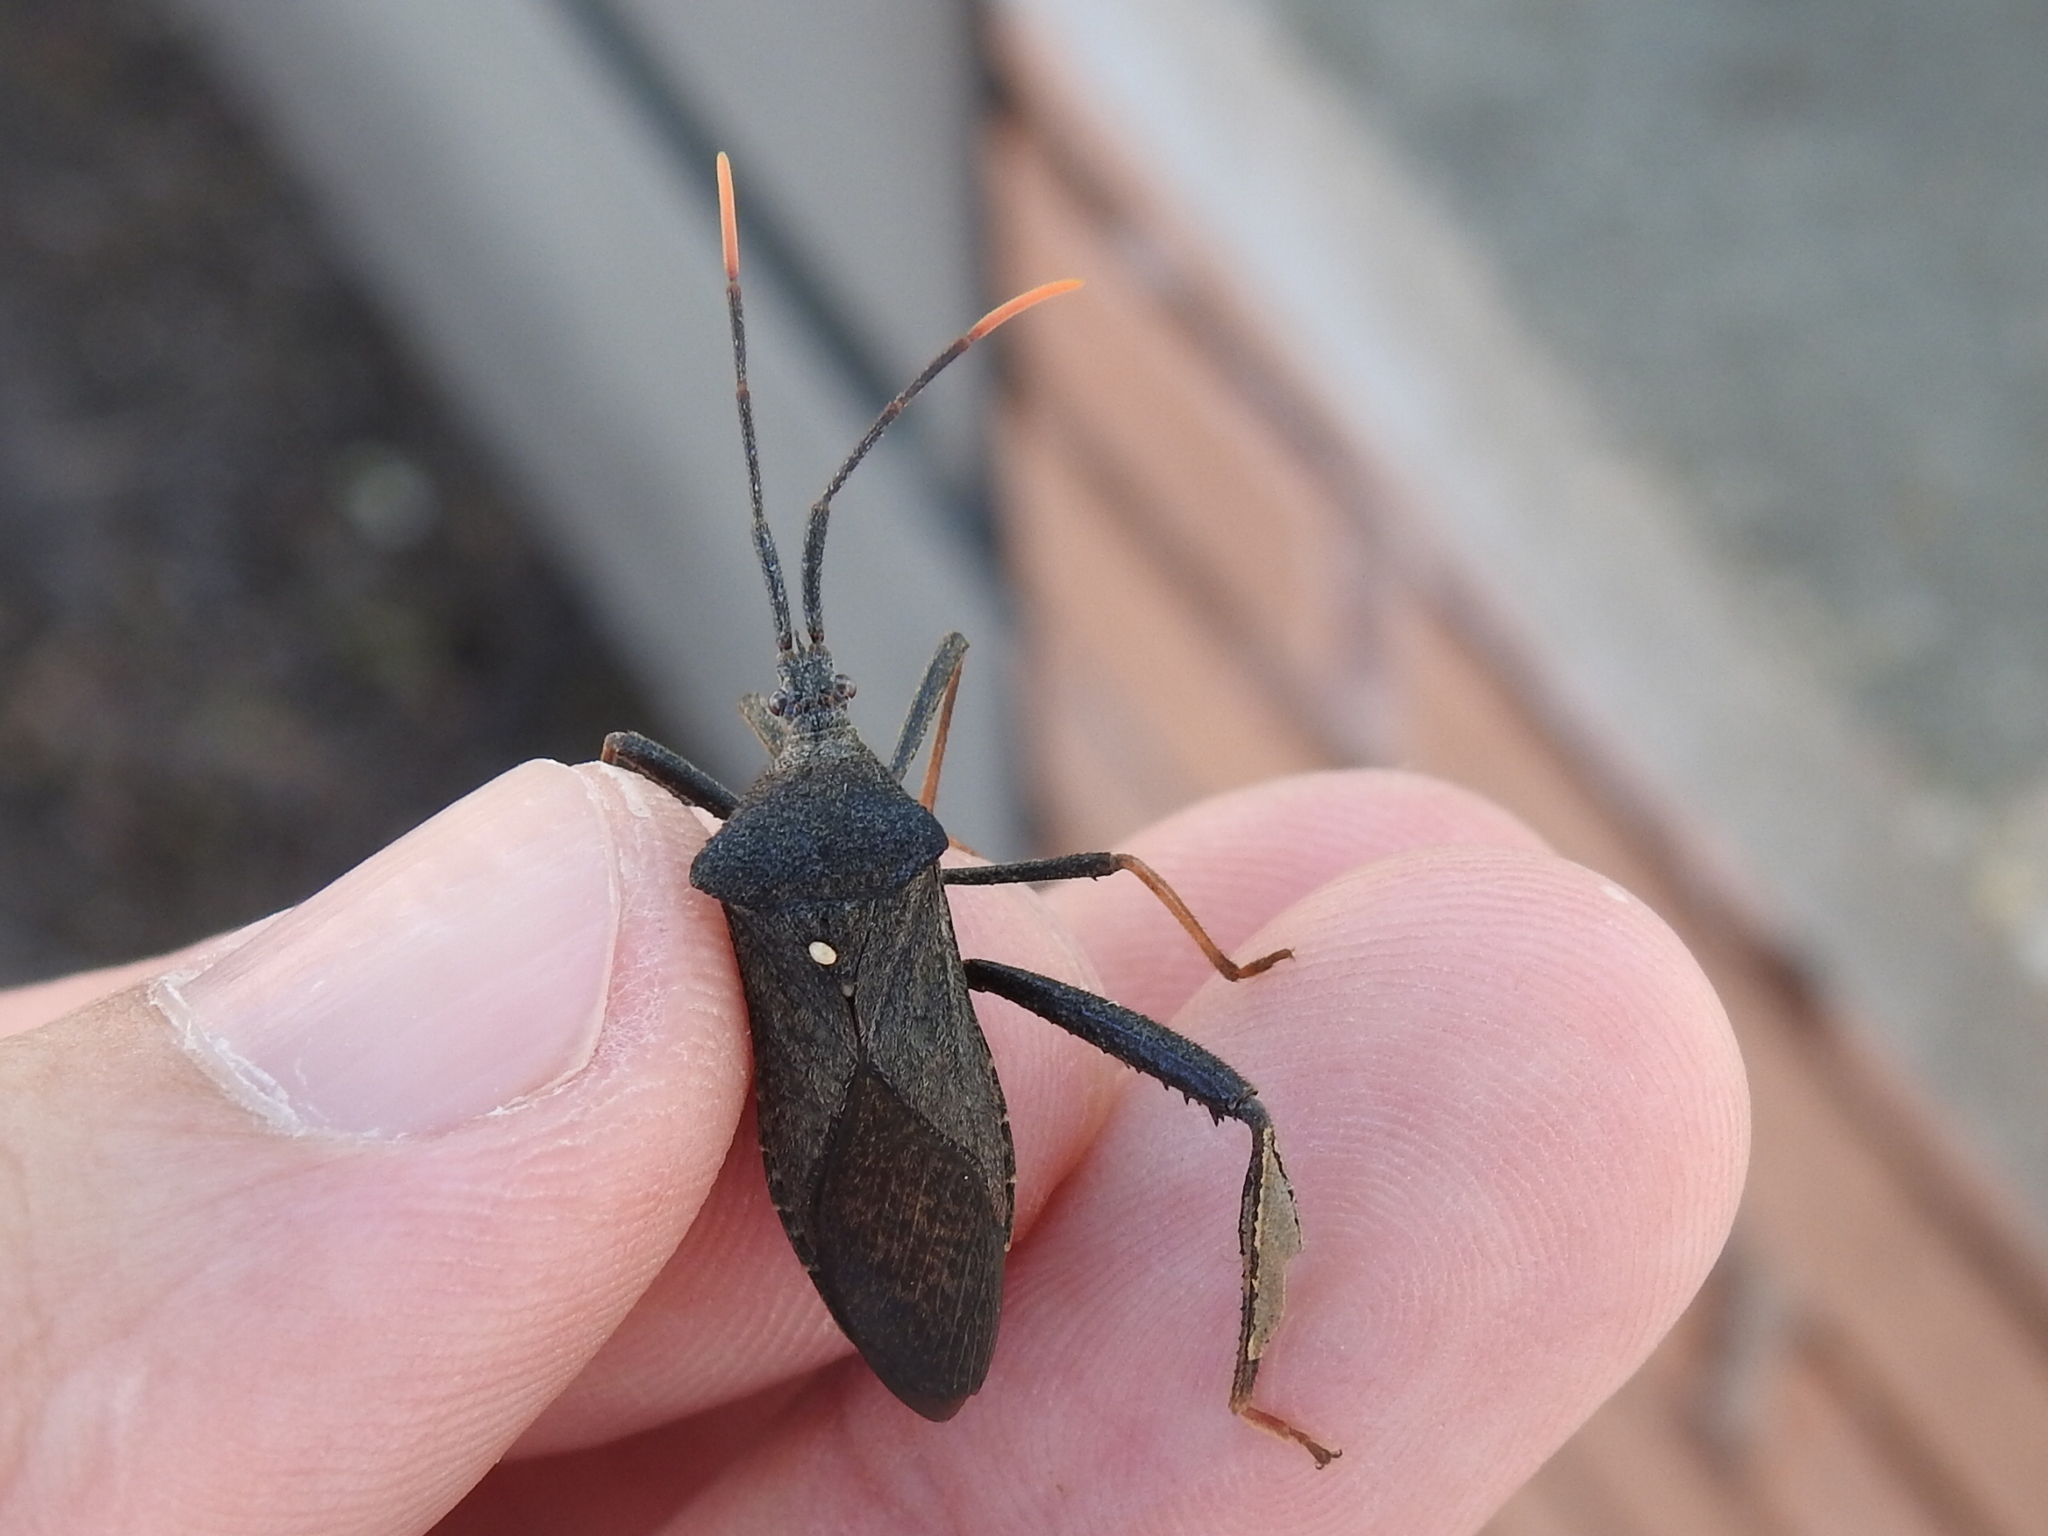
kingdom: Animalia
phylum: Arthropoda
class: Insecta
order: Hemiptera
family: Coreidae
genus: Acanthocephala
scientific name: Acanthocephala terminalis
